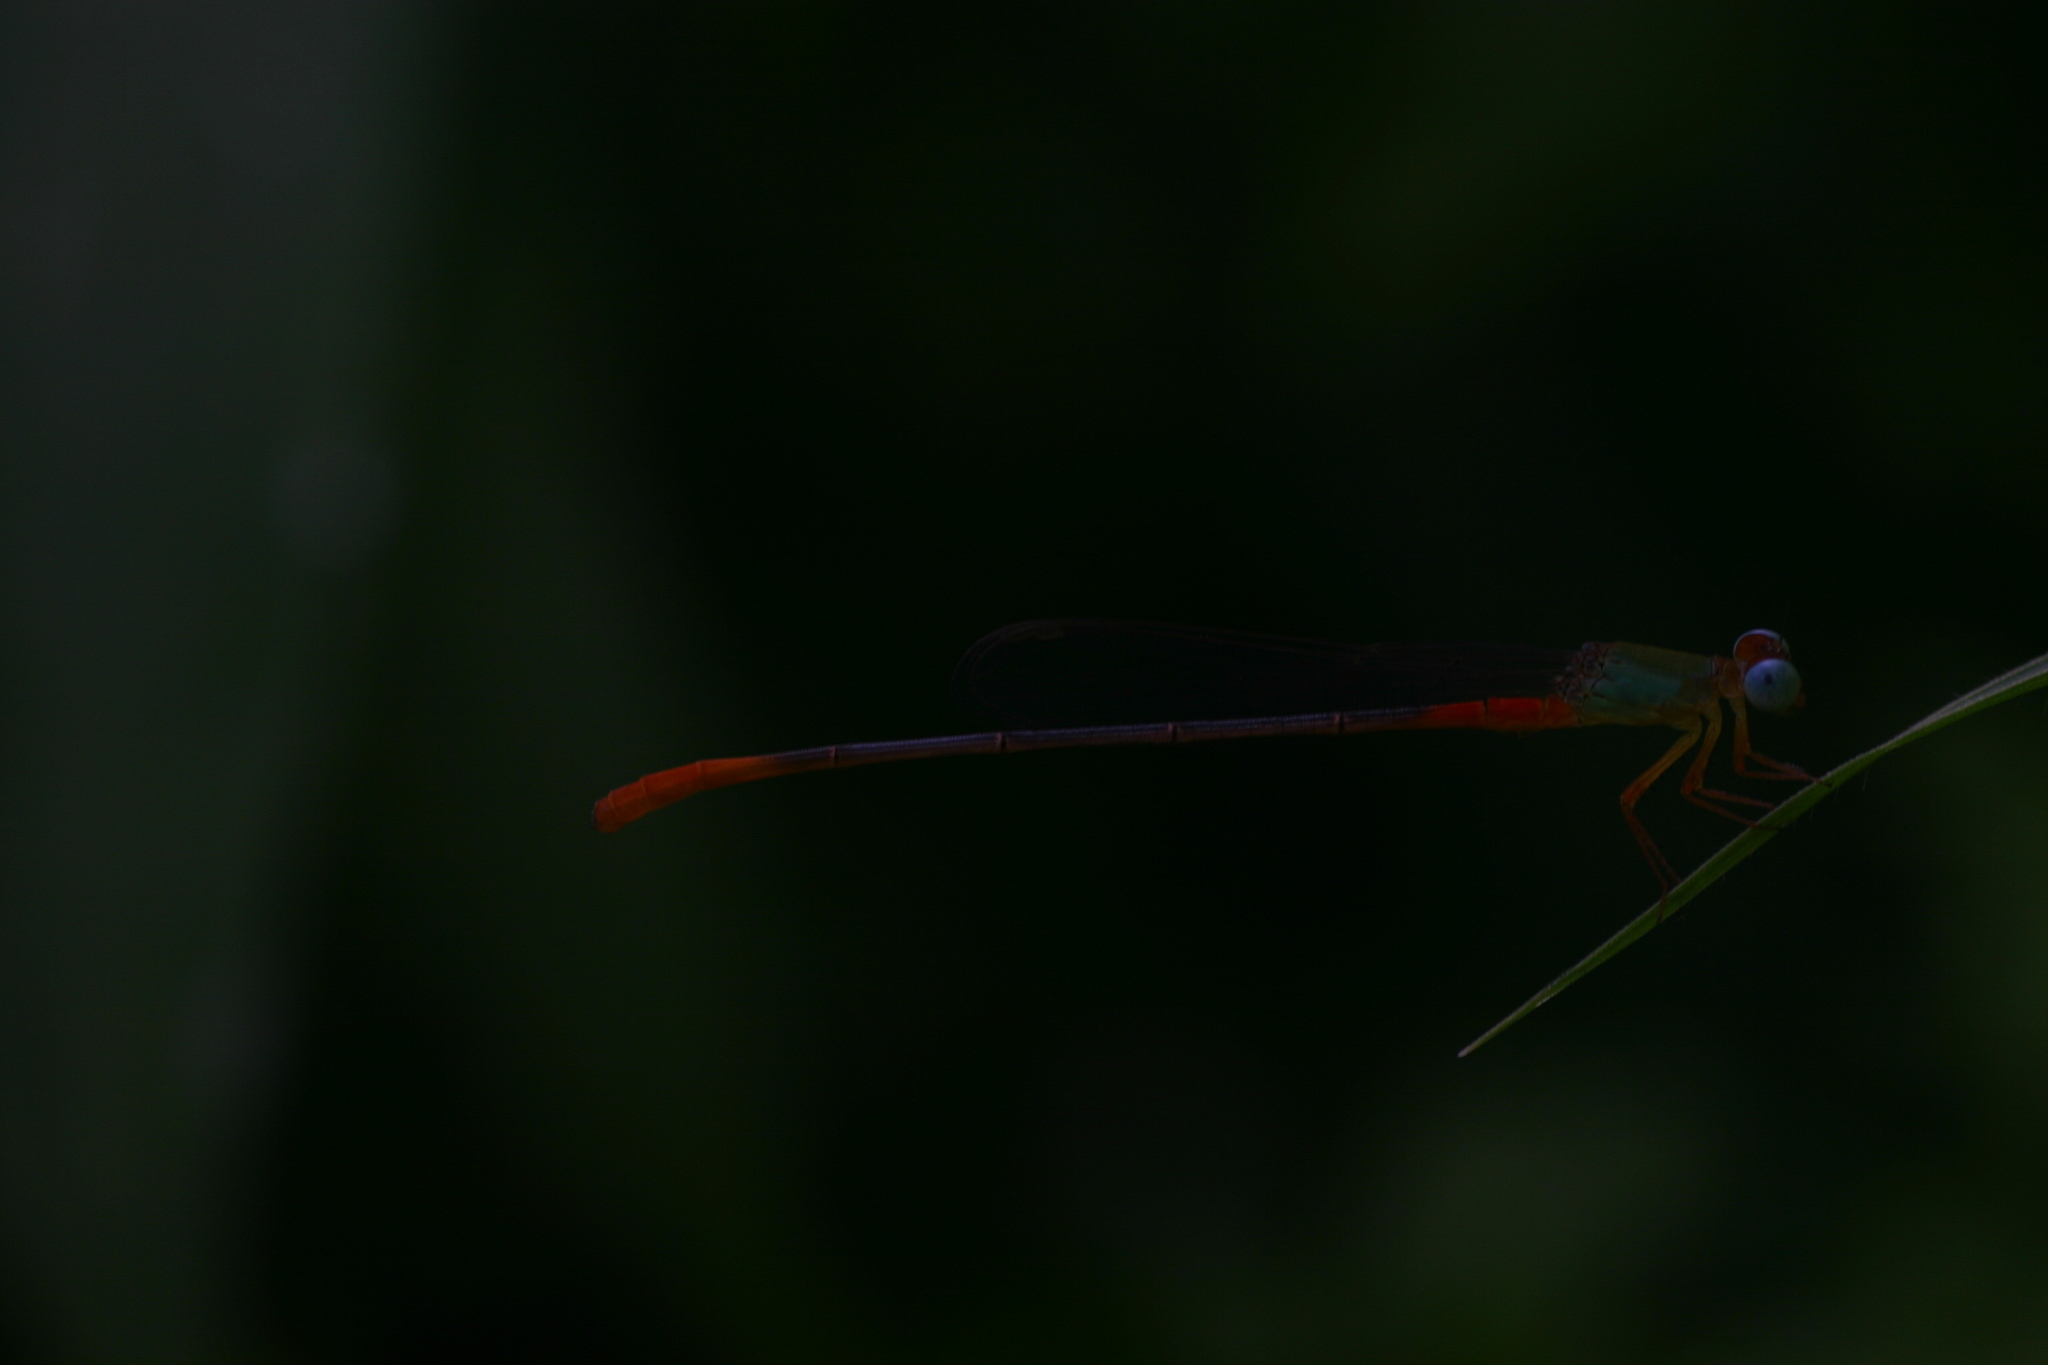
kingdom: Animalia
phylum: Arthropoda
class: Insecta
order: Odonata
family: Coenagrionidae
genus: Ceriagrion
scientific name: Ceriagrion cerinorubellum
